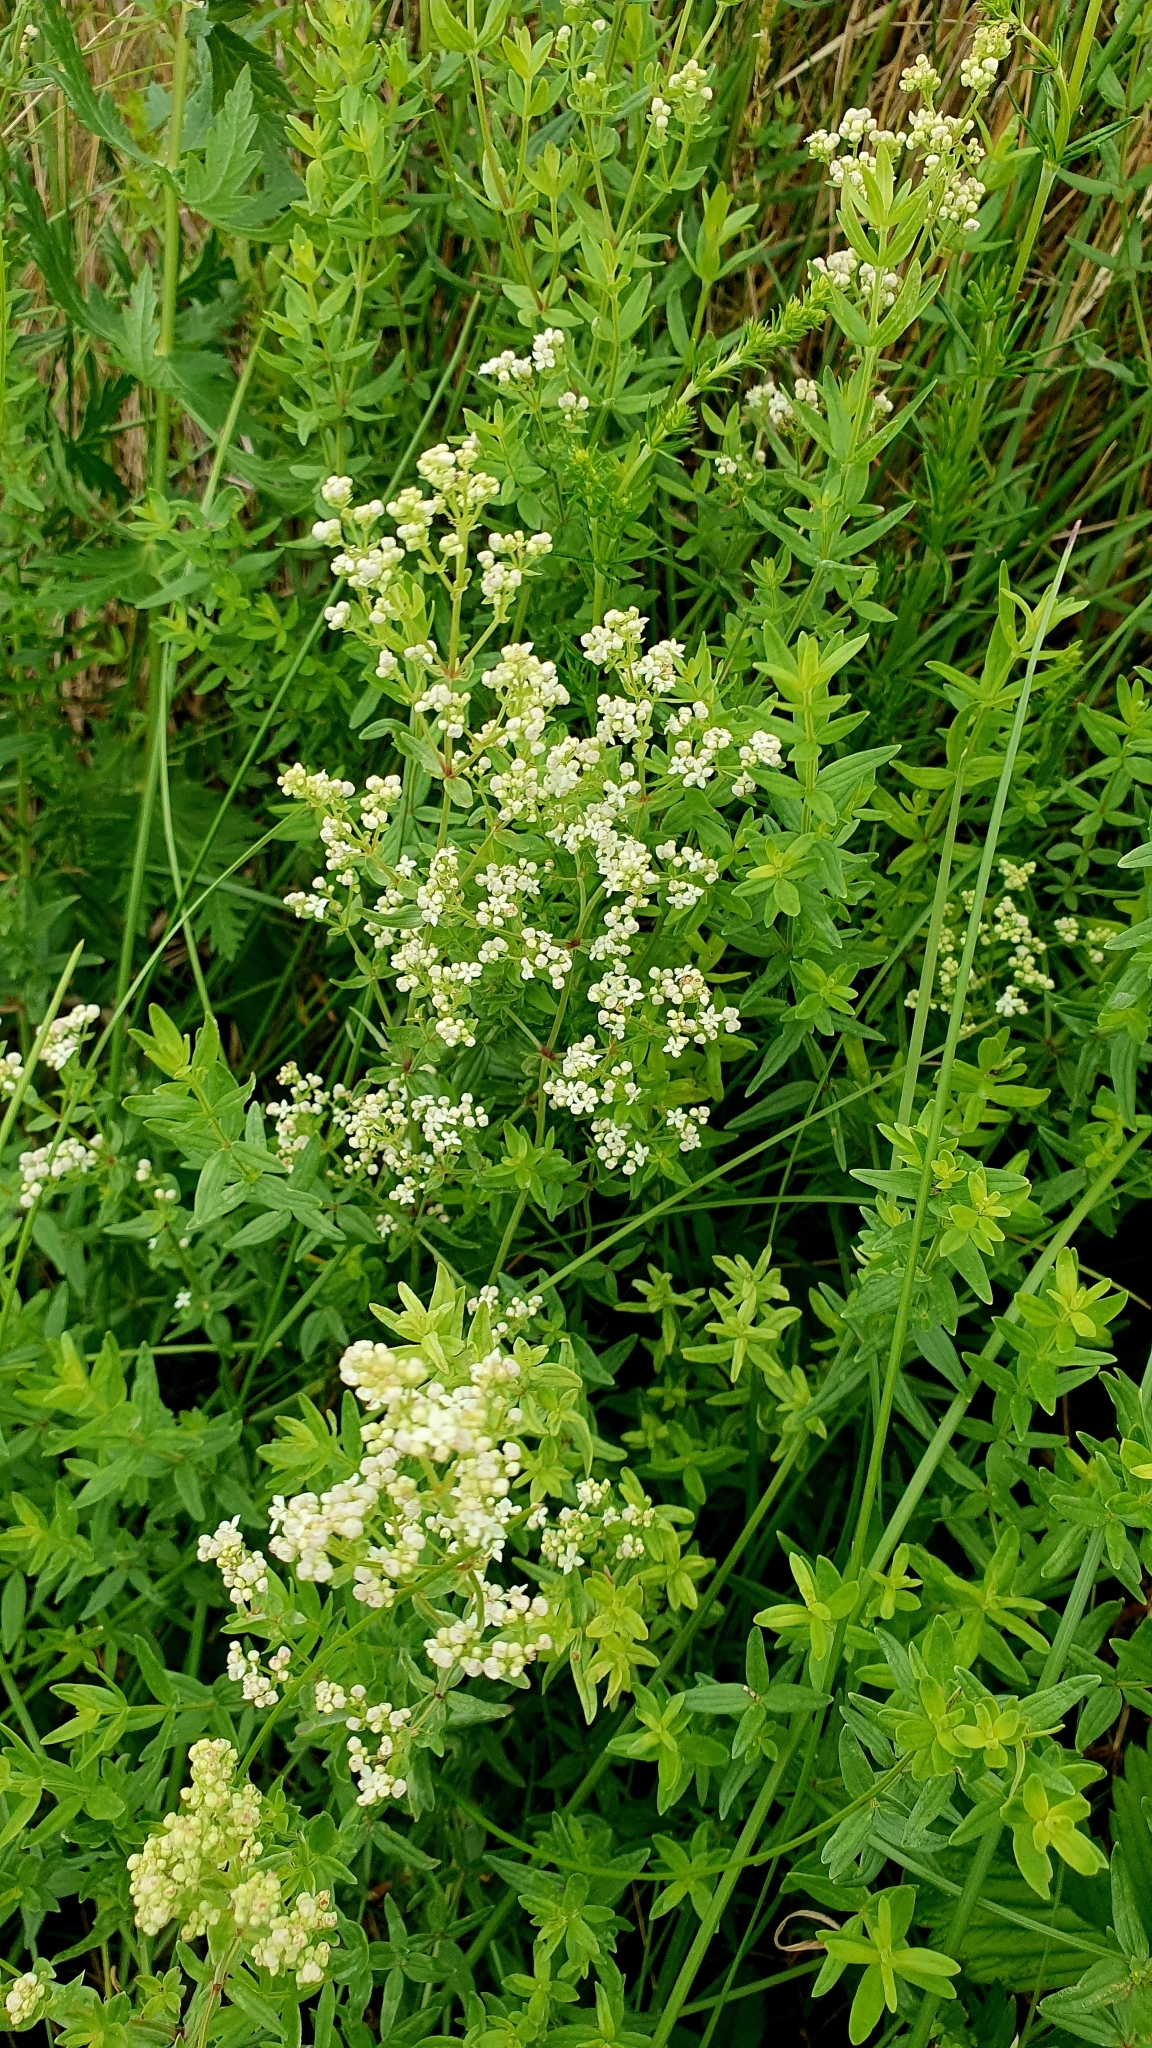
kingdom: Plantae
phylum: Tracheophyta
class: Magnoliopsida
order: Gentianales
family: Rubiaceae
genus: Galium
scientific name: Galium boreale
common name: Northern bedstraw
